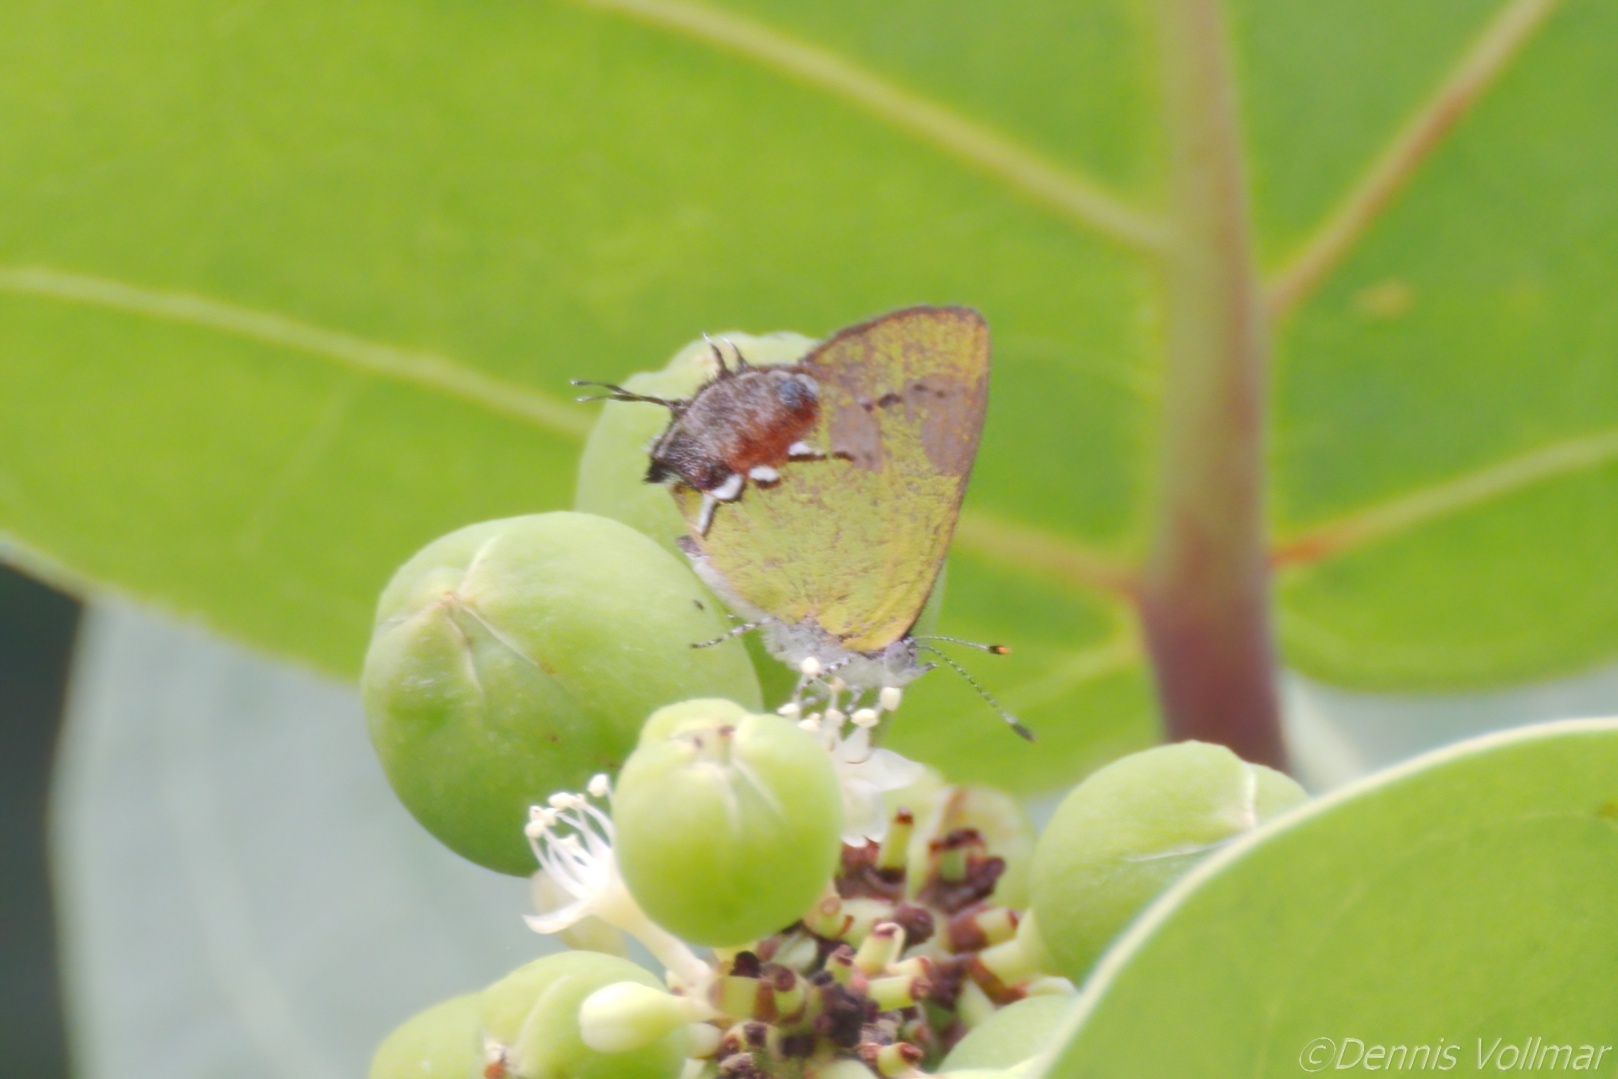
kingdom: Animalia
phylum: Arthropoda
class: Insecta
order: Lepidoptera
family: Lycaenidae
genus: Thecla
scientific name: Thecla maesites
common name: Verde azul hairstreak
